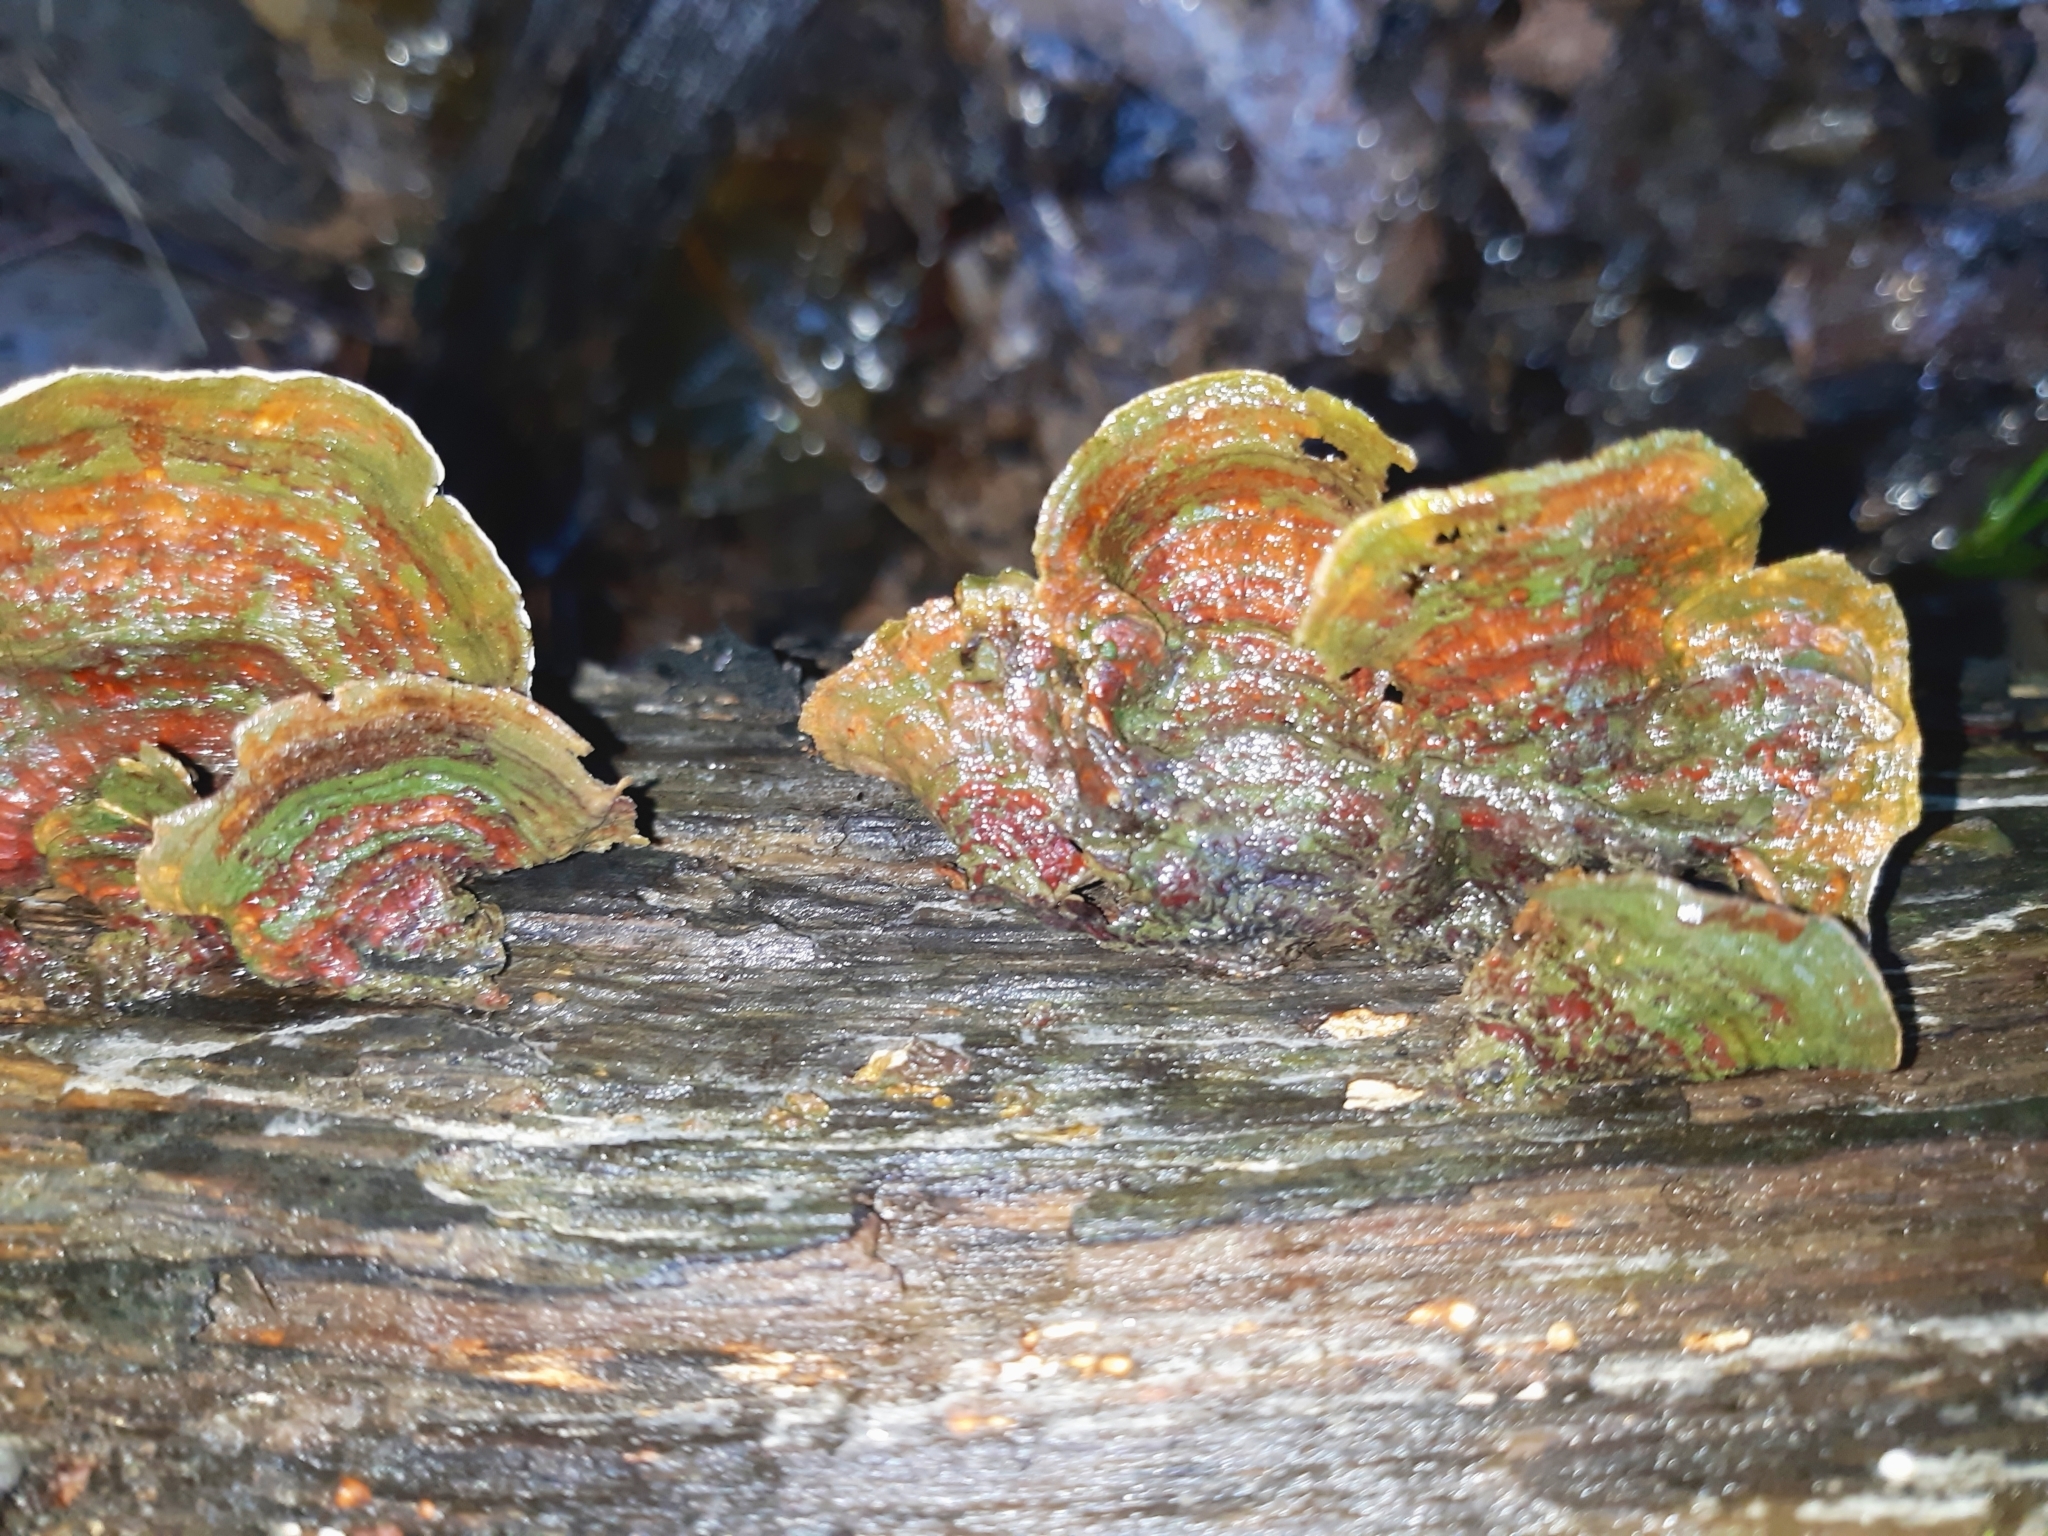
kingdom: Fungi
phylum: Basidiomycota
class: Agaricomycetes
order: Russulales
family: Stereaceae
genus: Stereum
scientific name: Stereum ostrea
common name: False turkeytail
